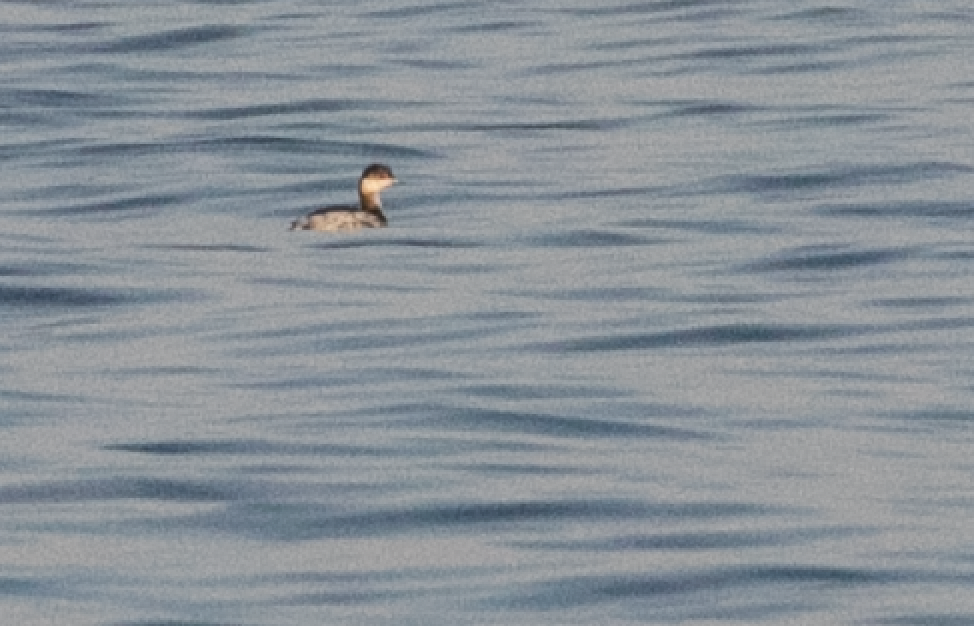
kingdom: Animalia
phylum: Chordata
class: Aves
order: Podicipediformes
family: Podicipedidae
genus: Podiceps
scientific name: Podiceps nigricollis
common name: Black-necked grebe
